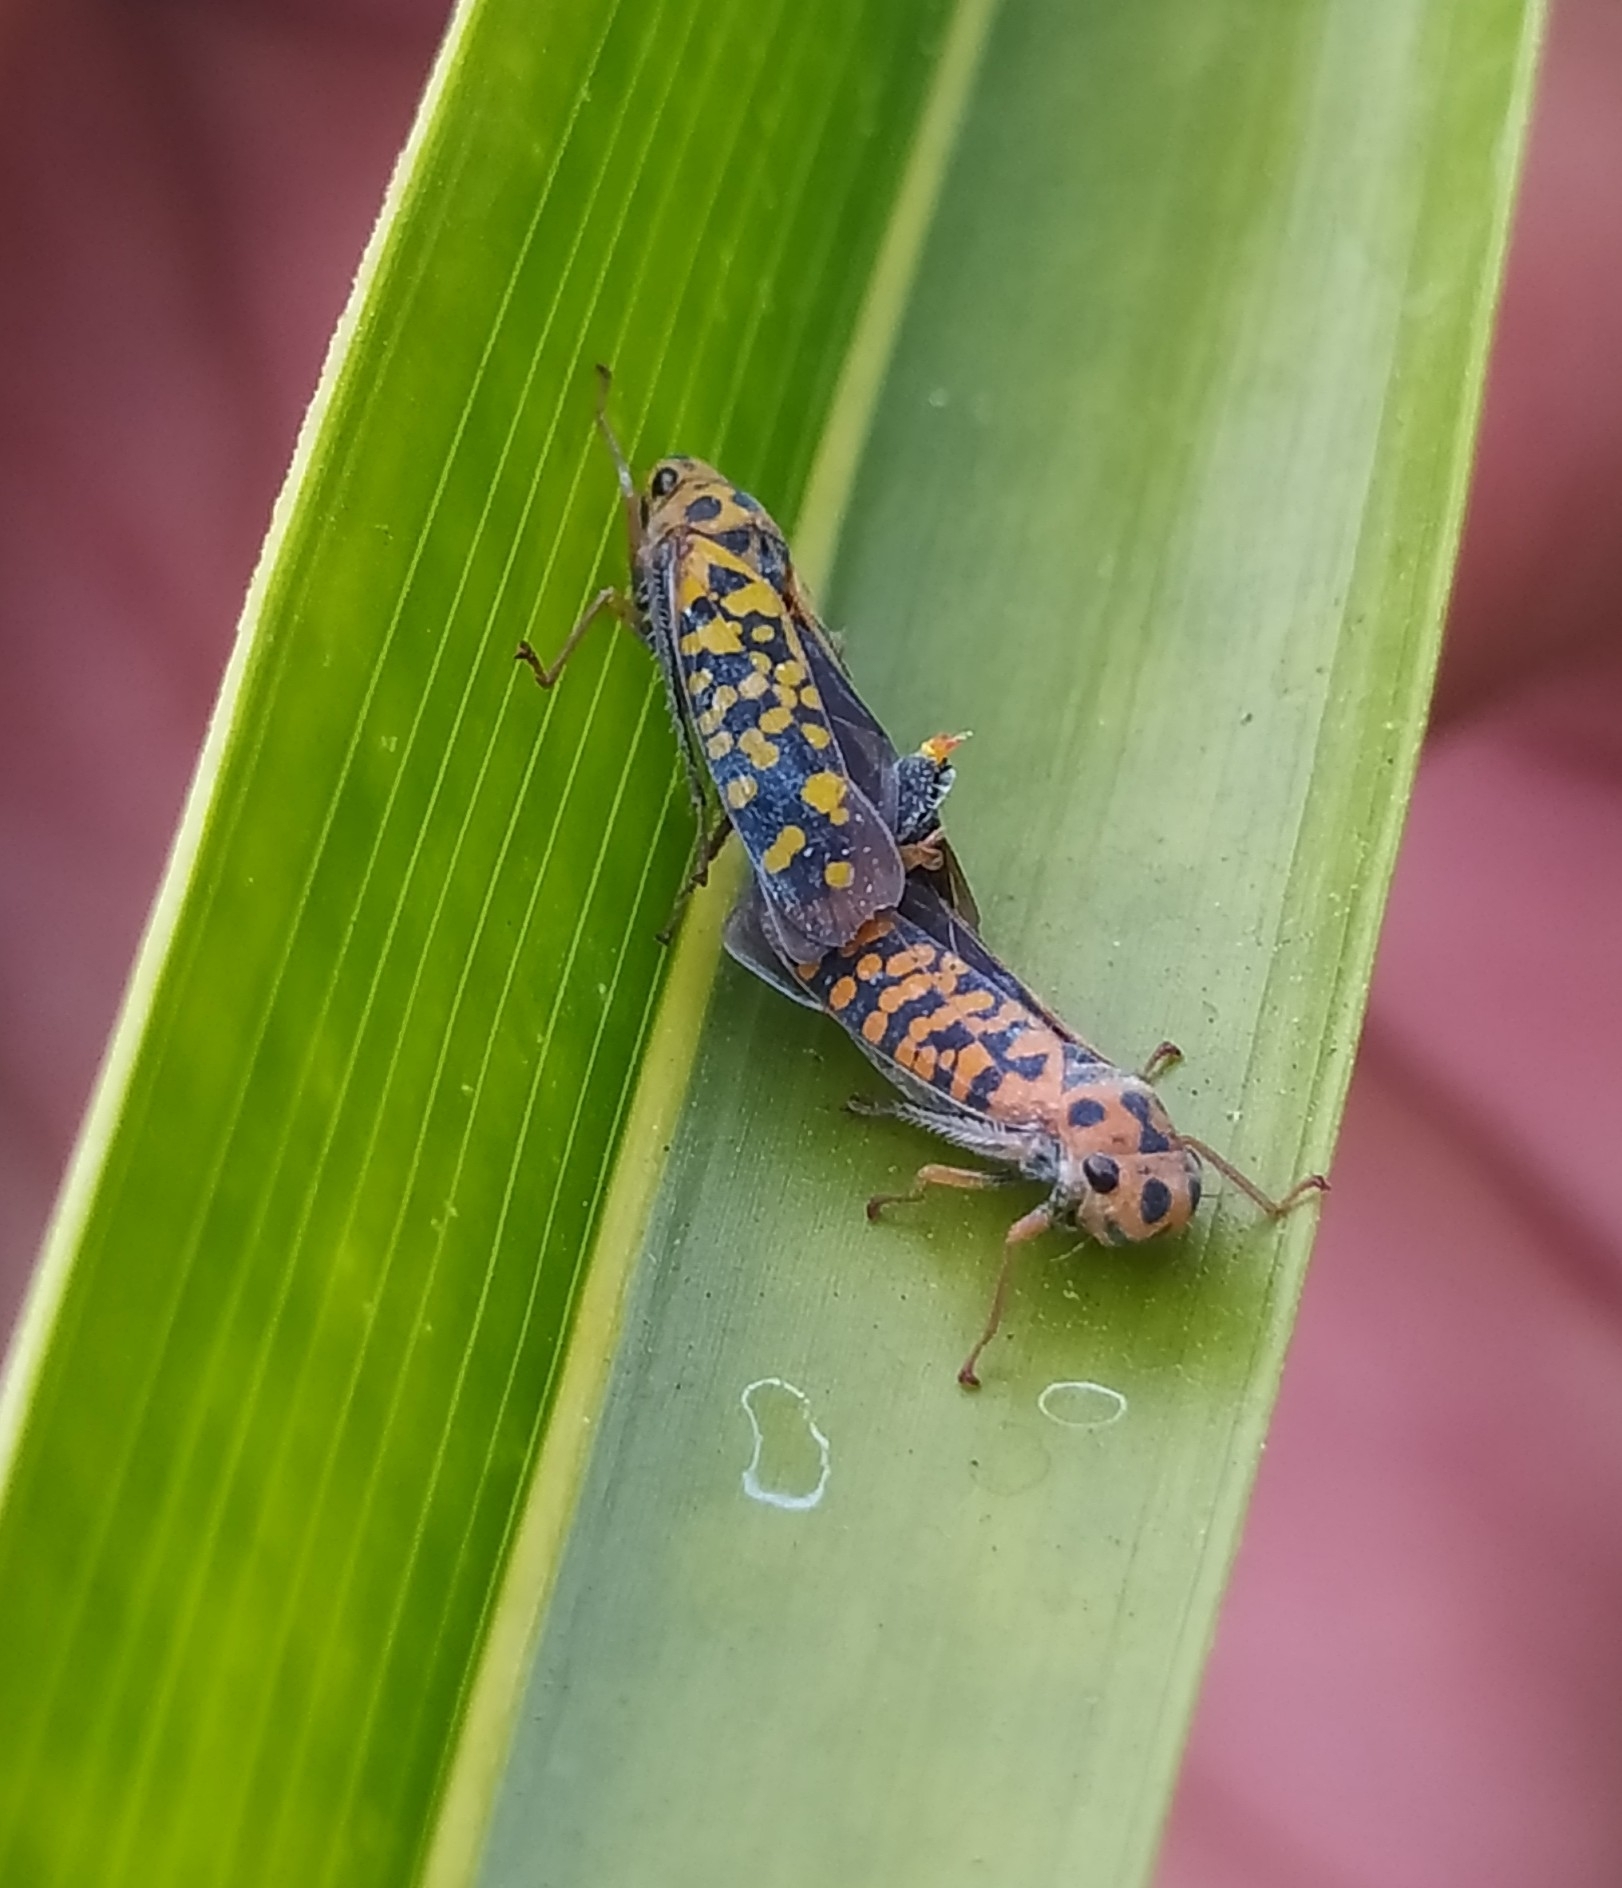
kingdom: Animalia
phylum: Arthropoda
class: Insecta
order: Hemiptera
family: Cicadellidae
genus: Pawiloma
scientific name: Pawiloma victima
